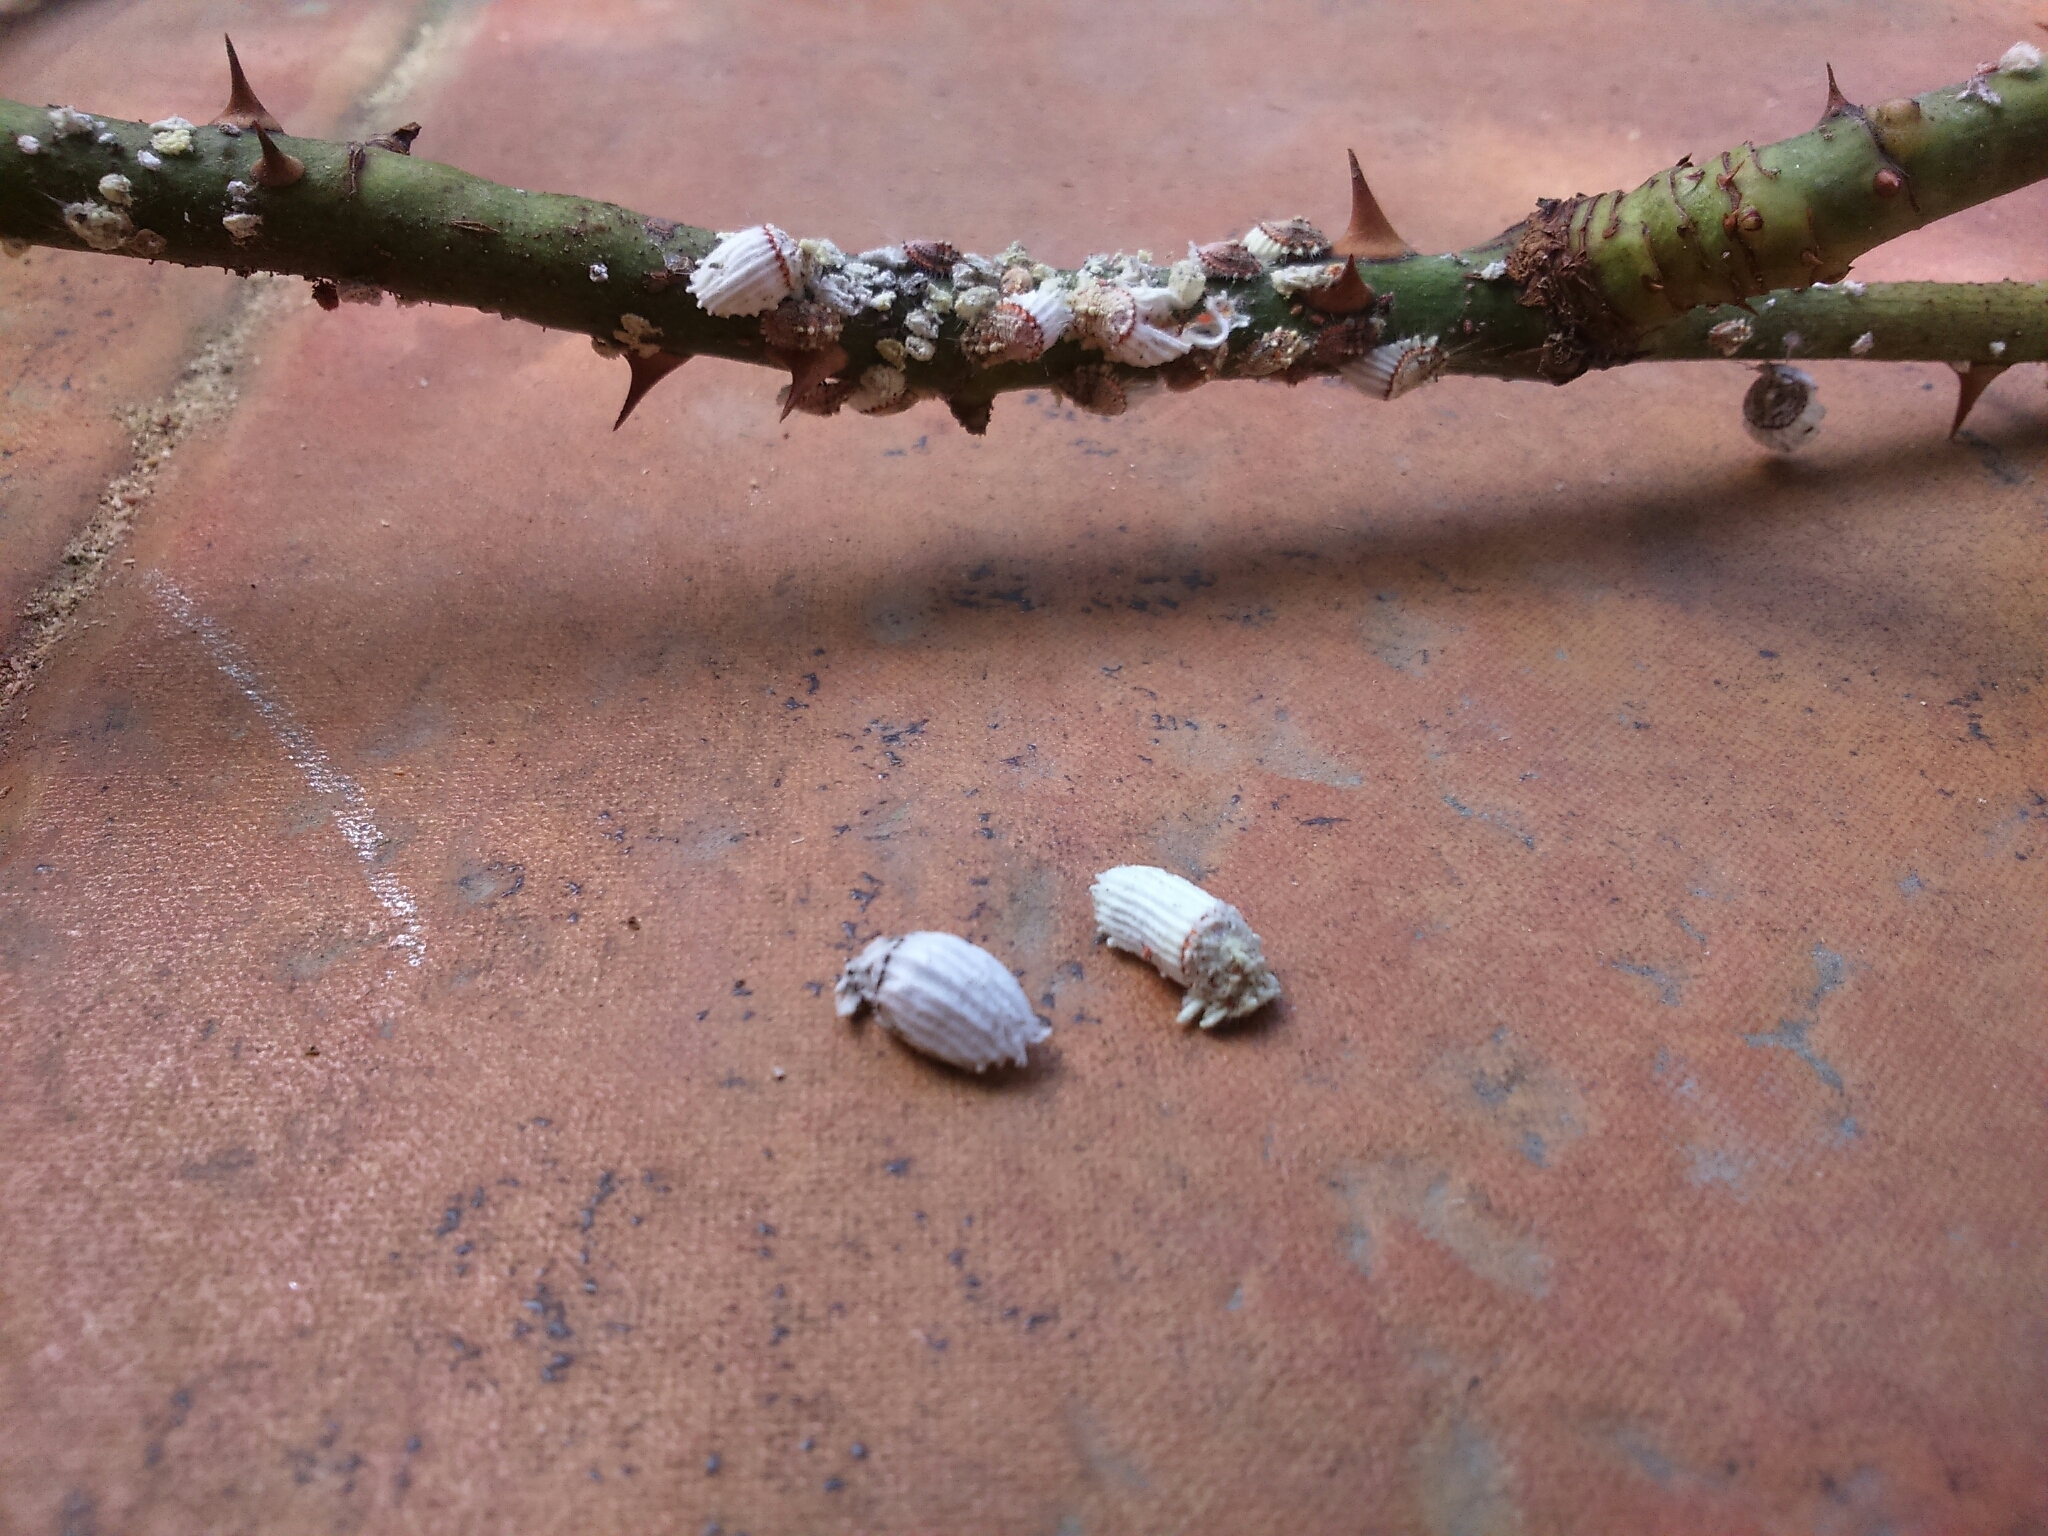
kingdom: Animalia
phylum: Arthropoda
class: Insecta
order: Hemiptera
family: Margarodidae
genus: Icerya
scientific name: Icerya purchasi
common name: Cottony cushion scale
